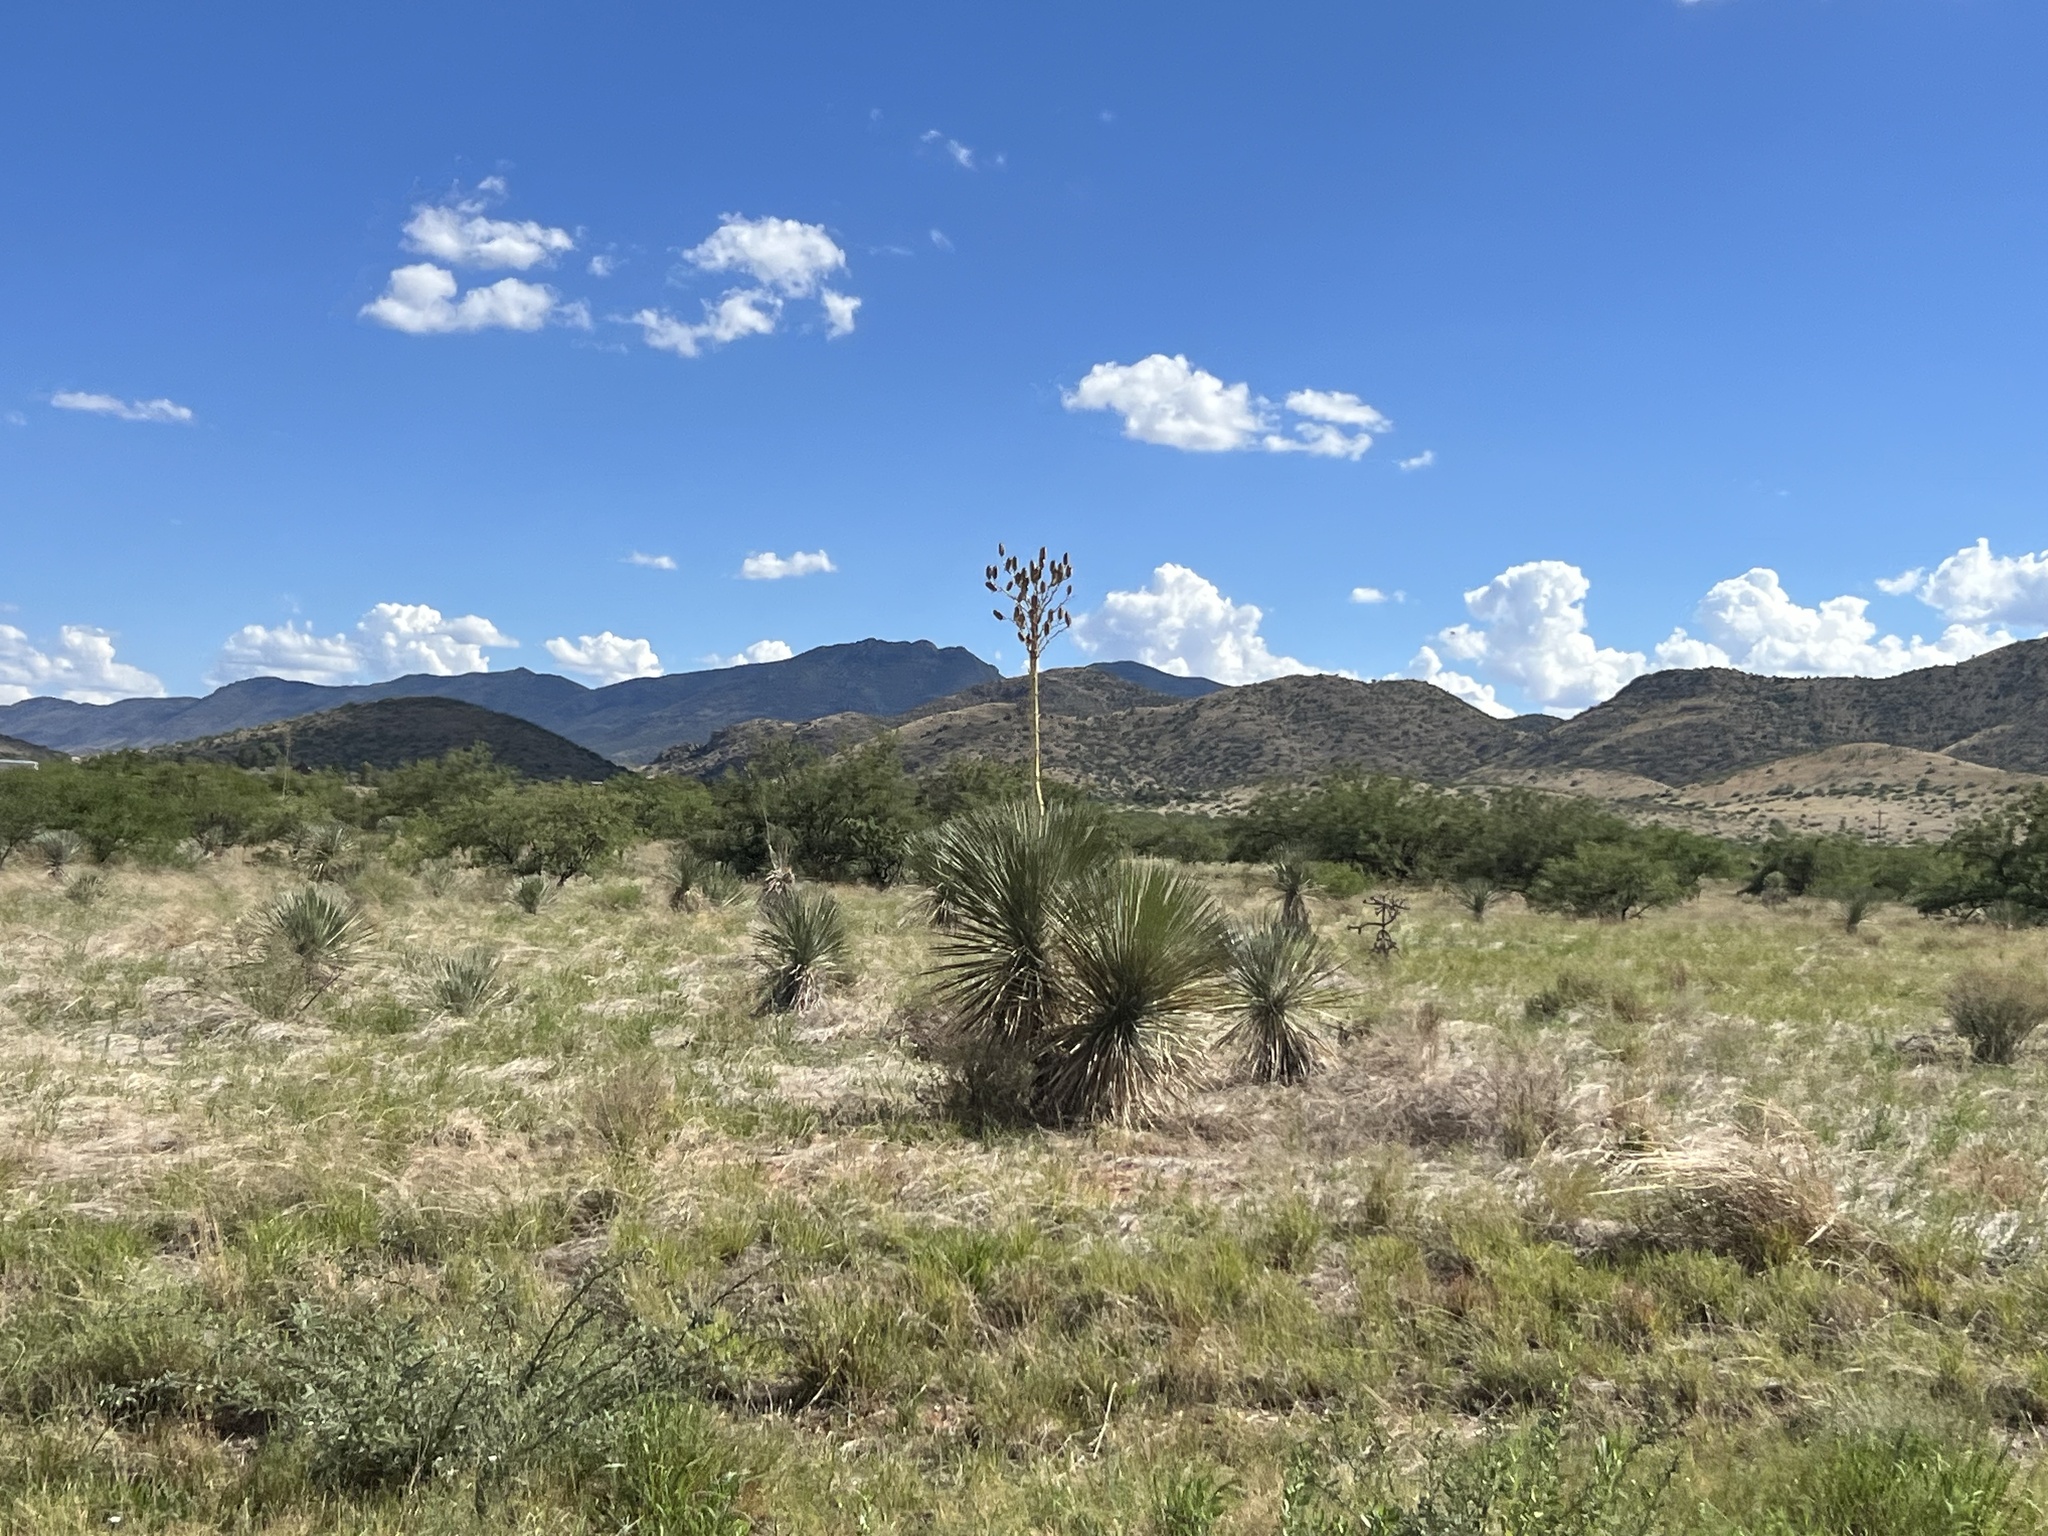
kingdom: Plantae
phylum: Tracheophyta
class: Liliopsida
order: Asparagales
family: Asparagaceae
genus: Yucca
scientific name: Yucca elata
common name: Palmella
